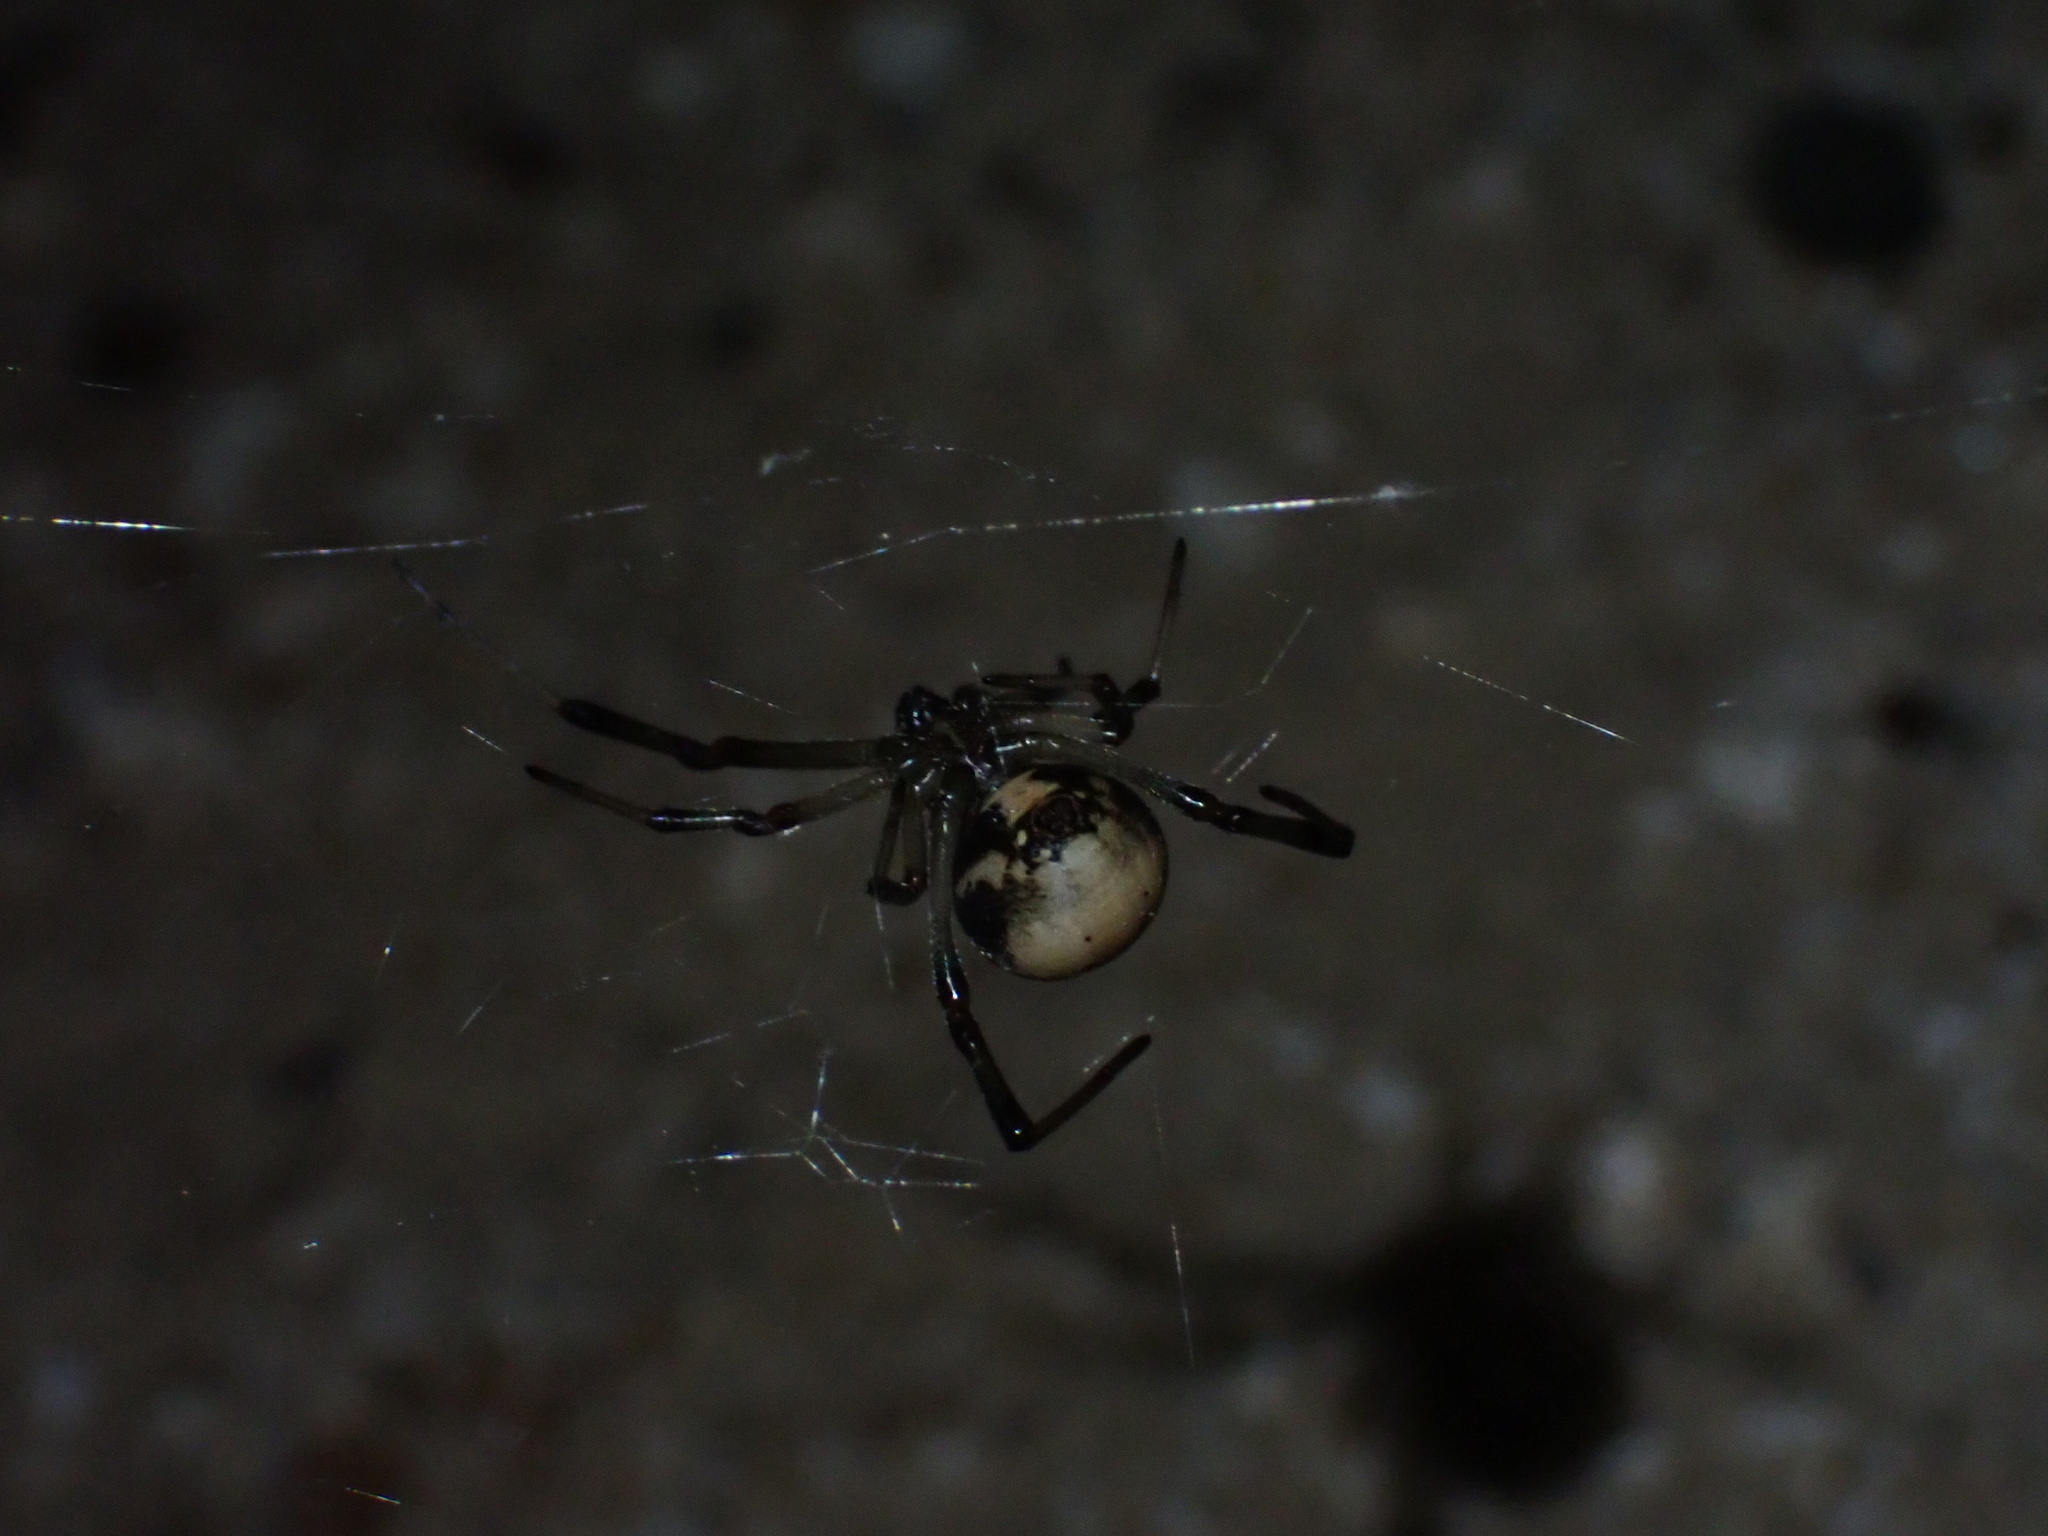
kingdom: Animalia
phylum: Arthropoda
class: Arachnida
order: Araneae
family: Theridiidae
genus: Latrodectus
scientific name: Latrodectus pallidus
